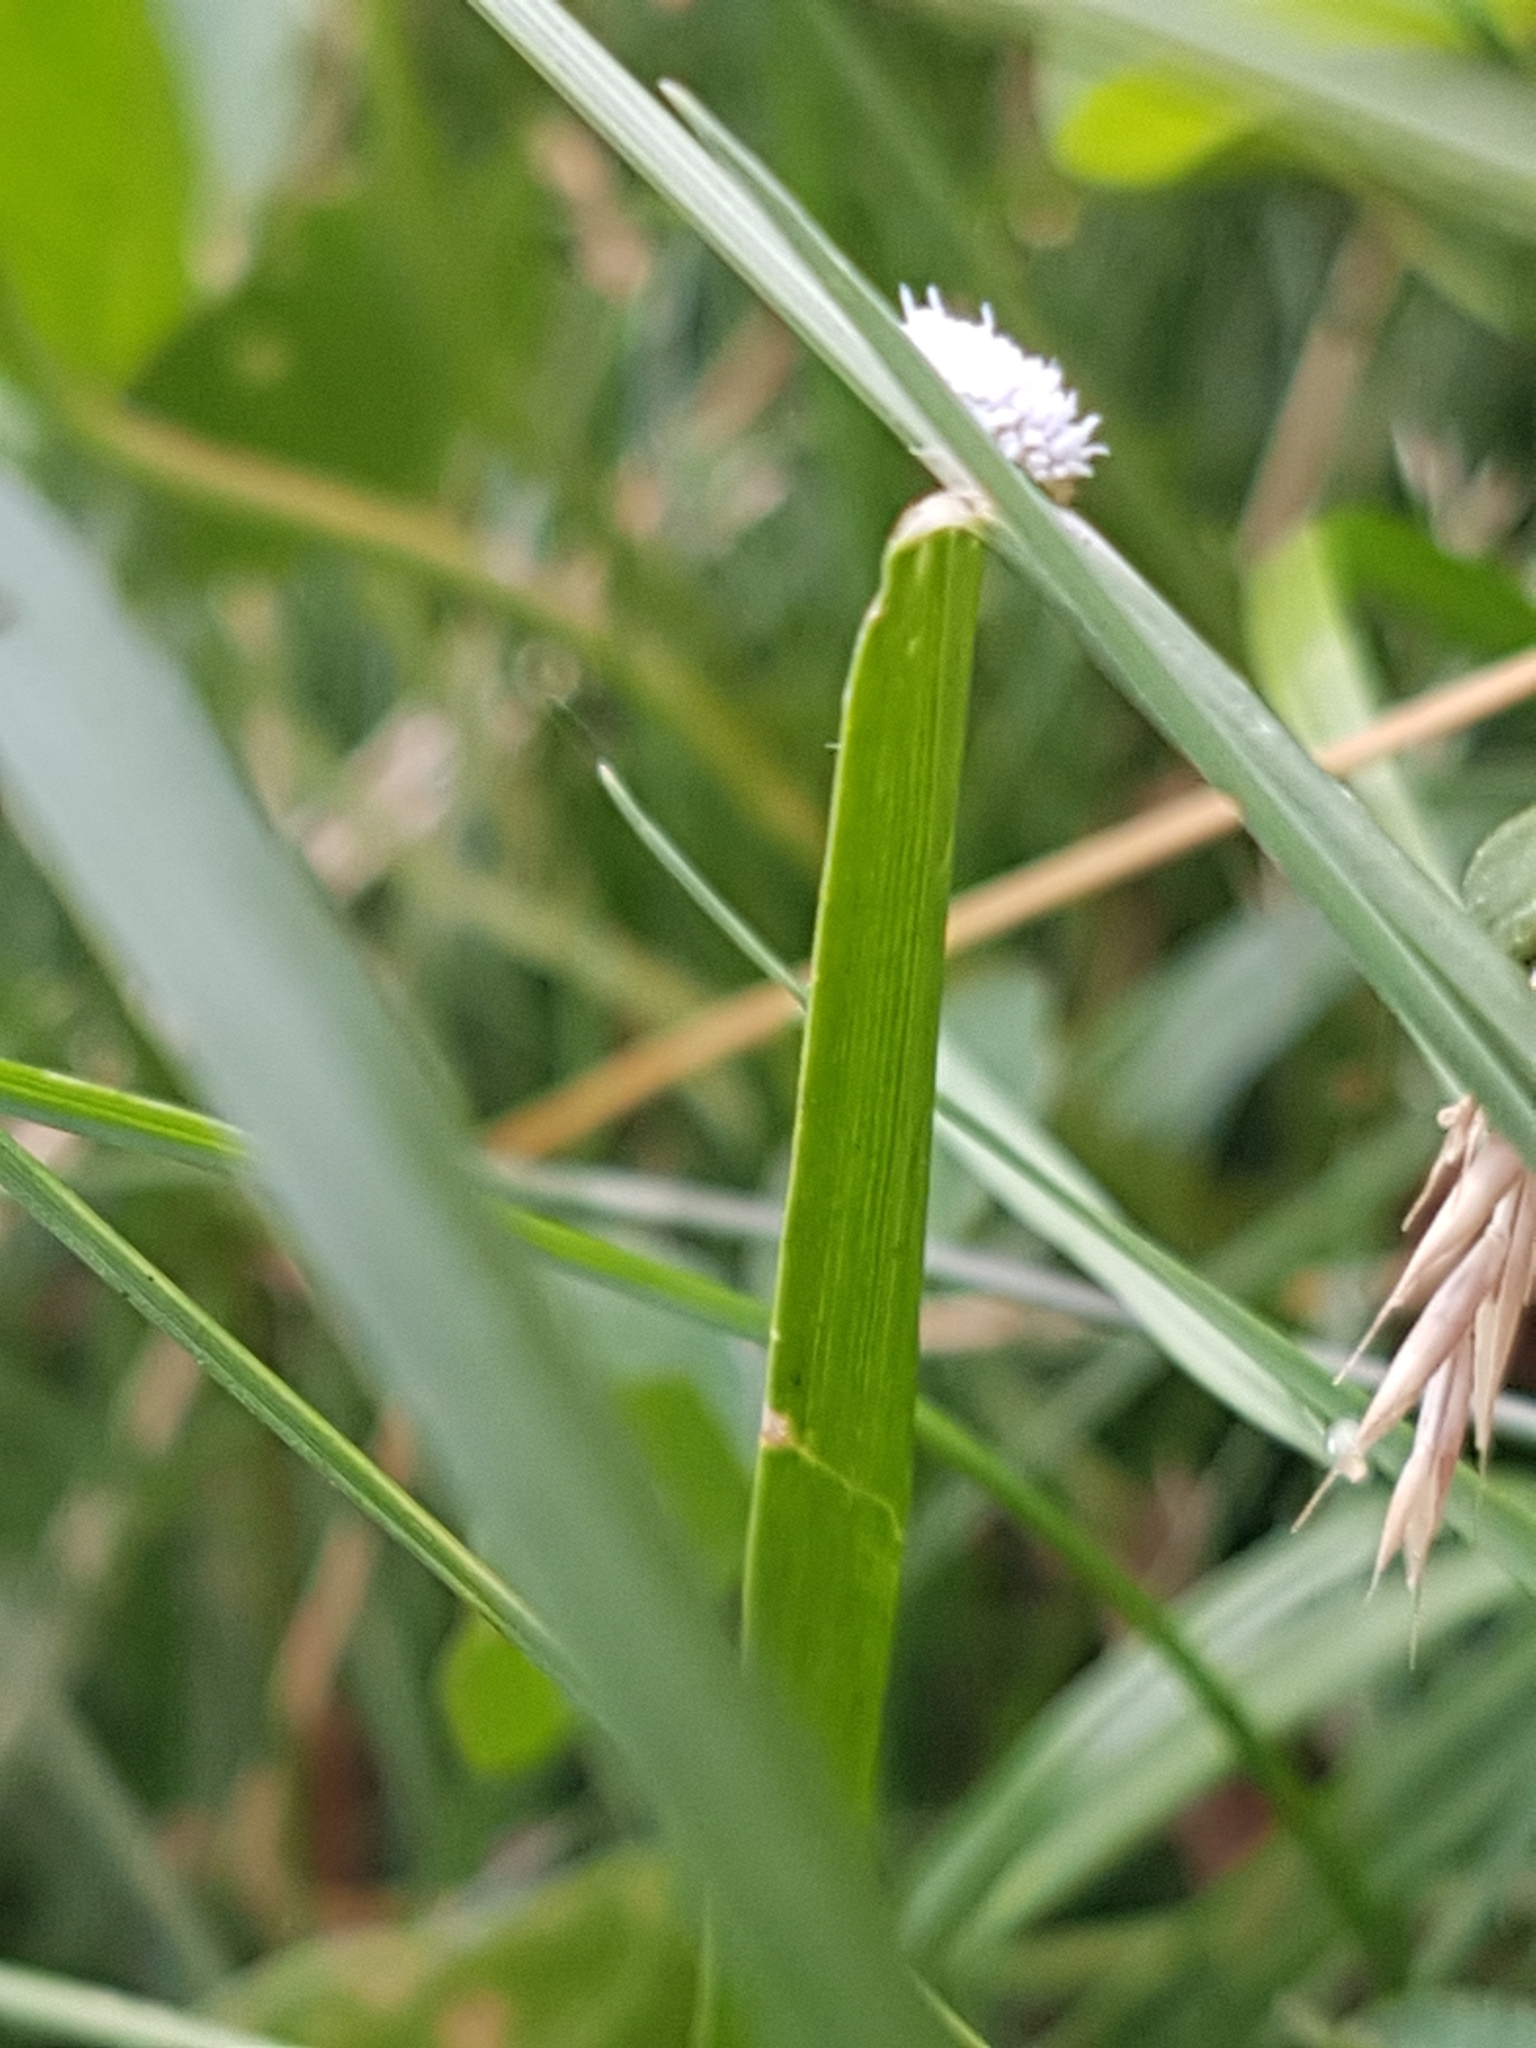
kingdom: Animalia
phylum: Arthropoda
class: Insecta
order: Coleoptera
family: Coccinellidae
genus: Cryptolaemus
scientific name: Cryptolaemus montrouzieri
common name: Mealybug destroyer
